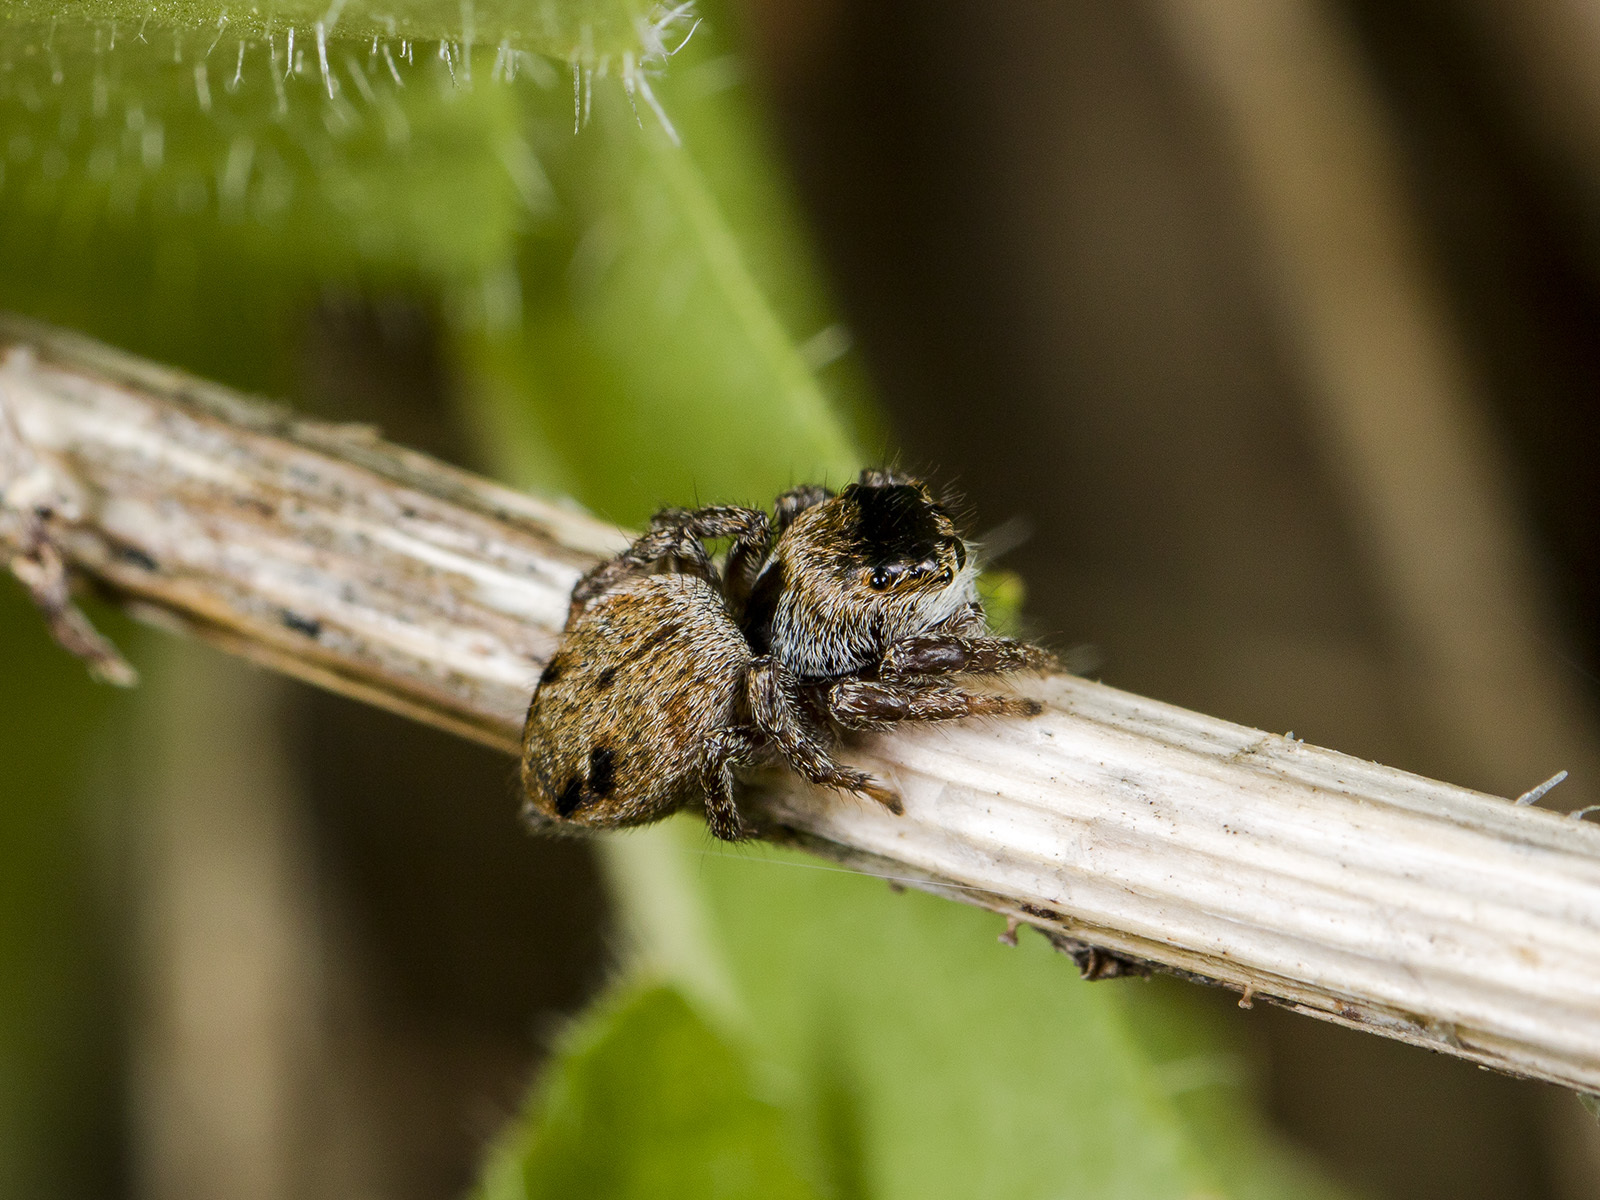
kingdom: Animalia
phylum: Arthropoda
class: Arachnida
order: Araneae
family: Salticidae
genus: Evarcha
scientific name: Evarcha arcuata
